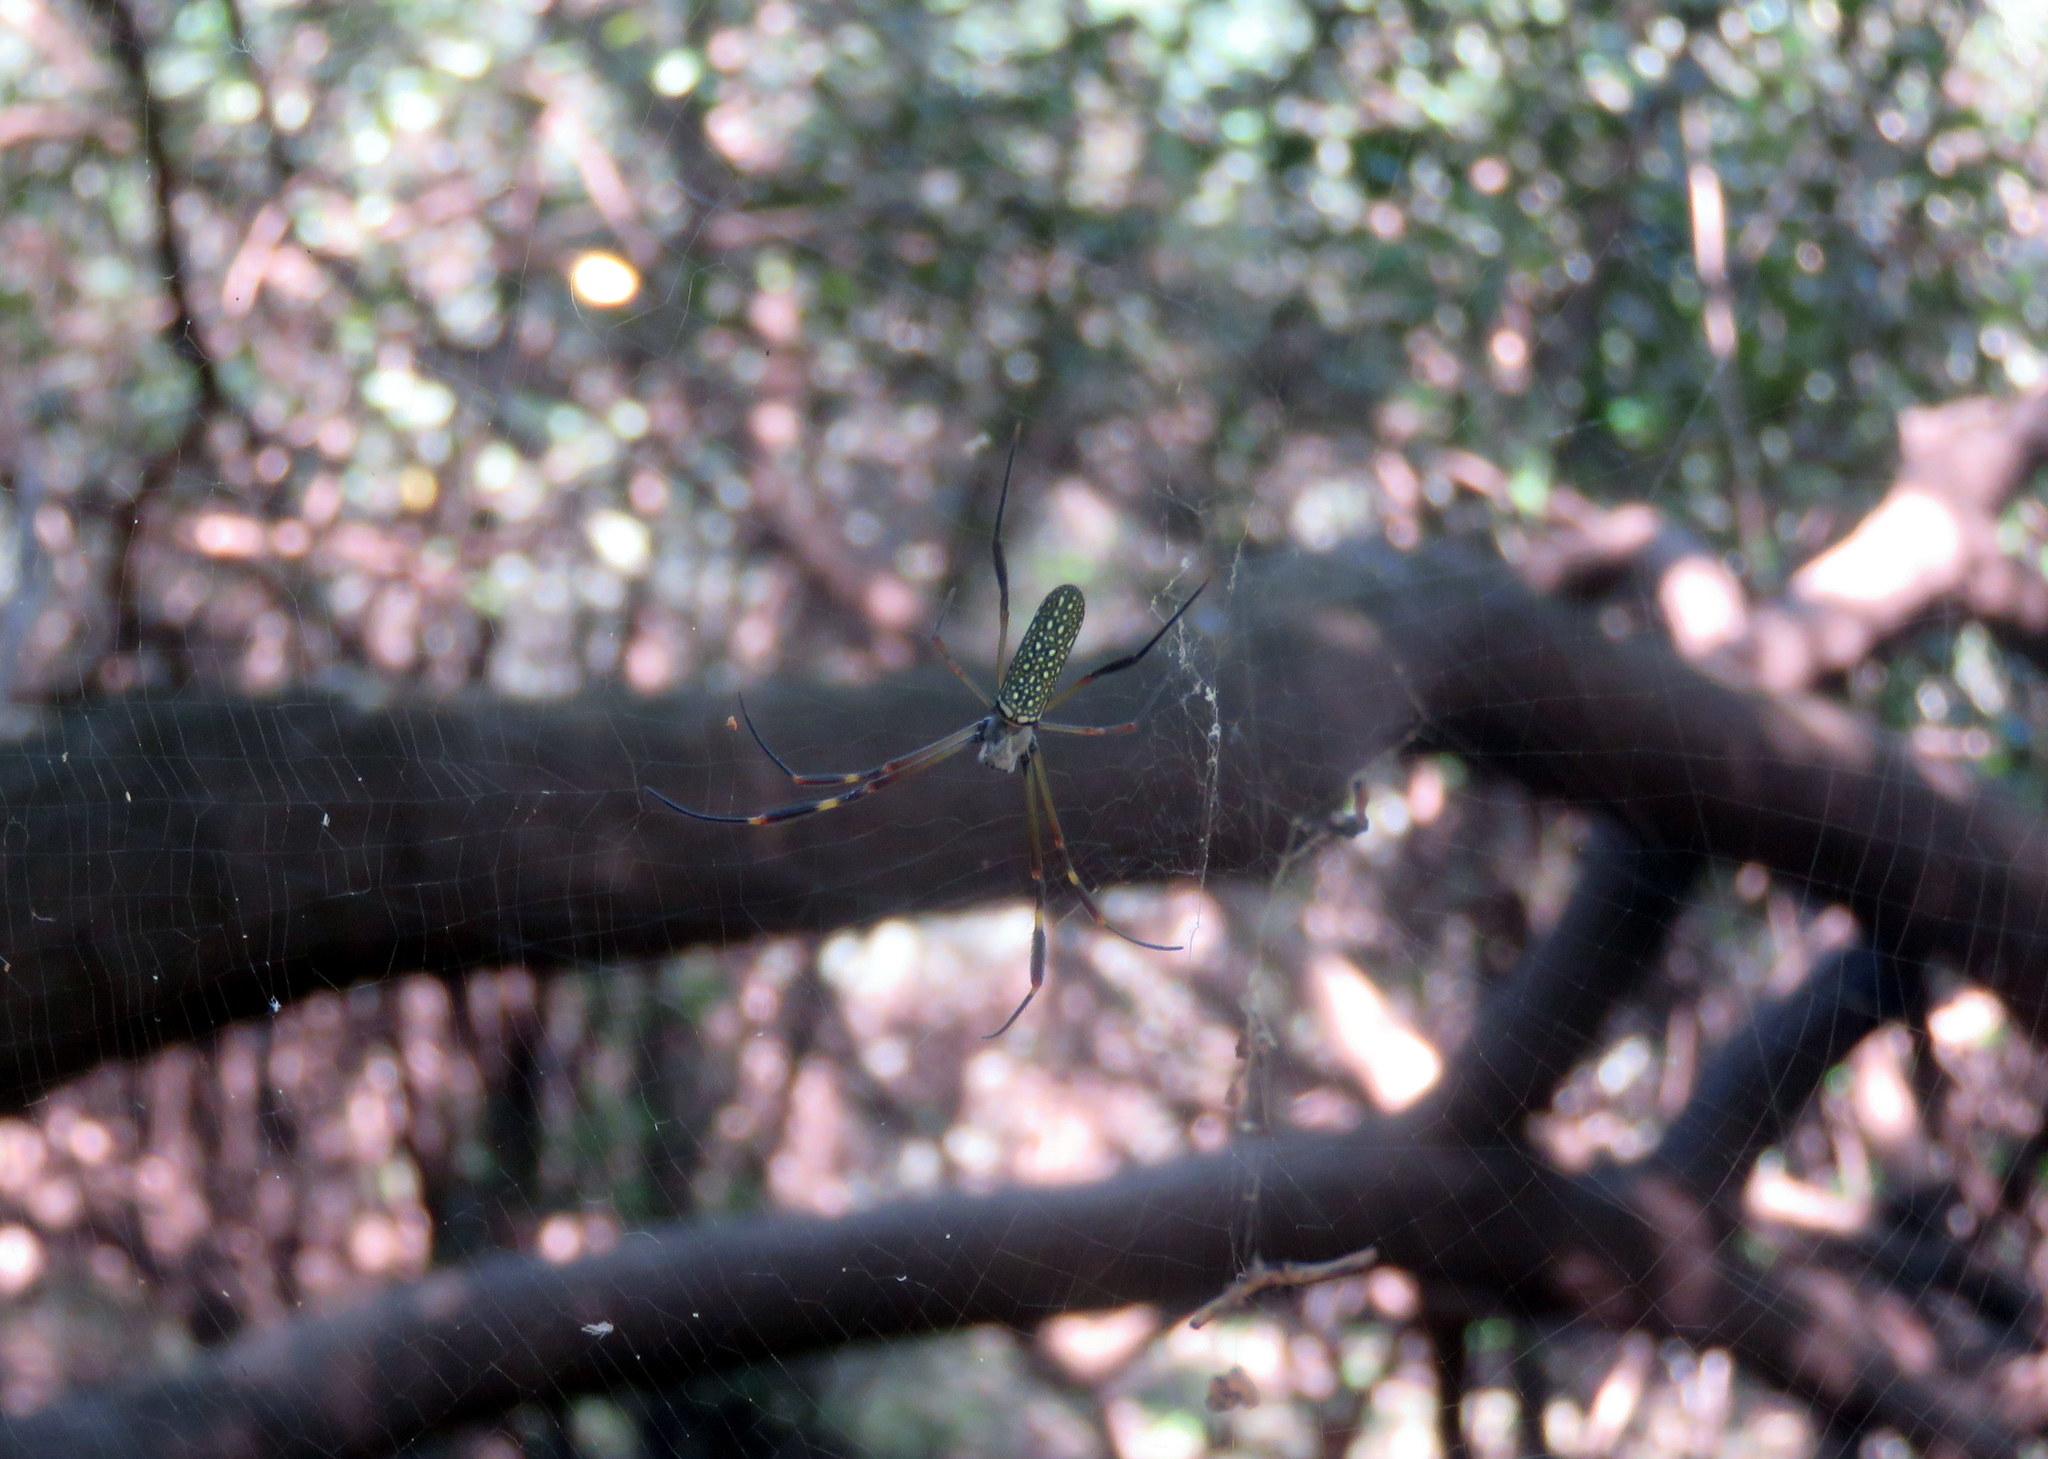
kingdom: Animalia
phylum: Arthropoda
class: Arachnida
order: Araneae
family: Araneidae
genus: Trichonephila
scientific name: Trichonephila clavipes
